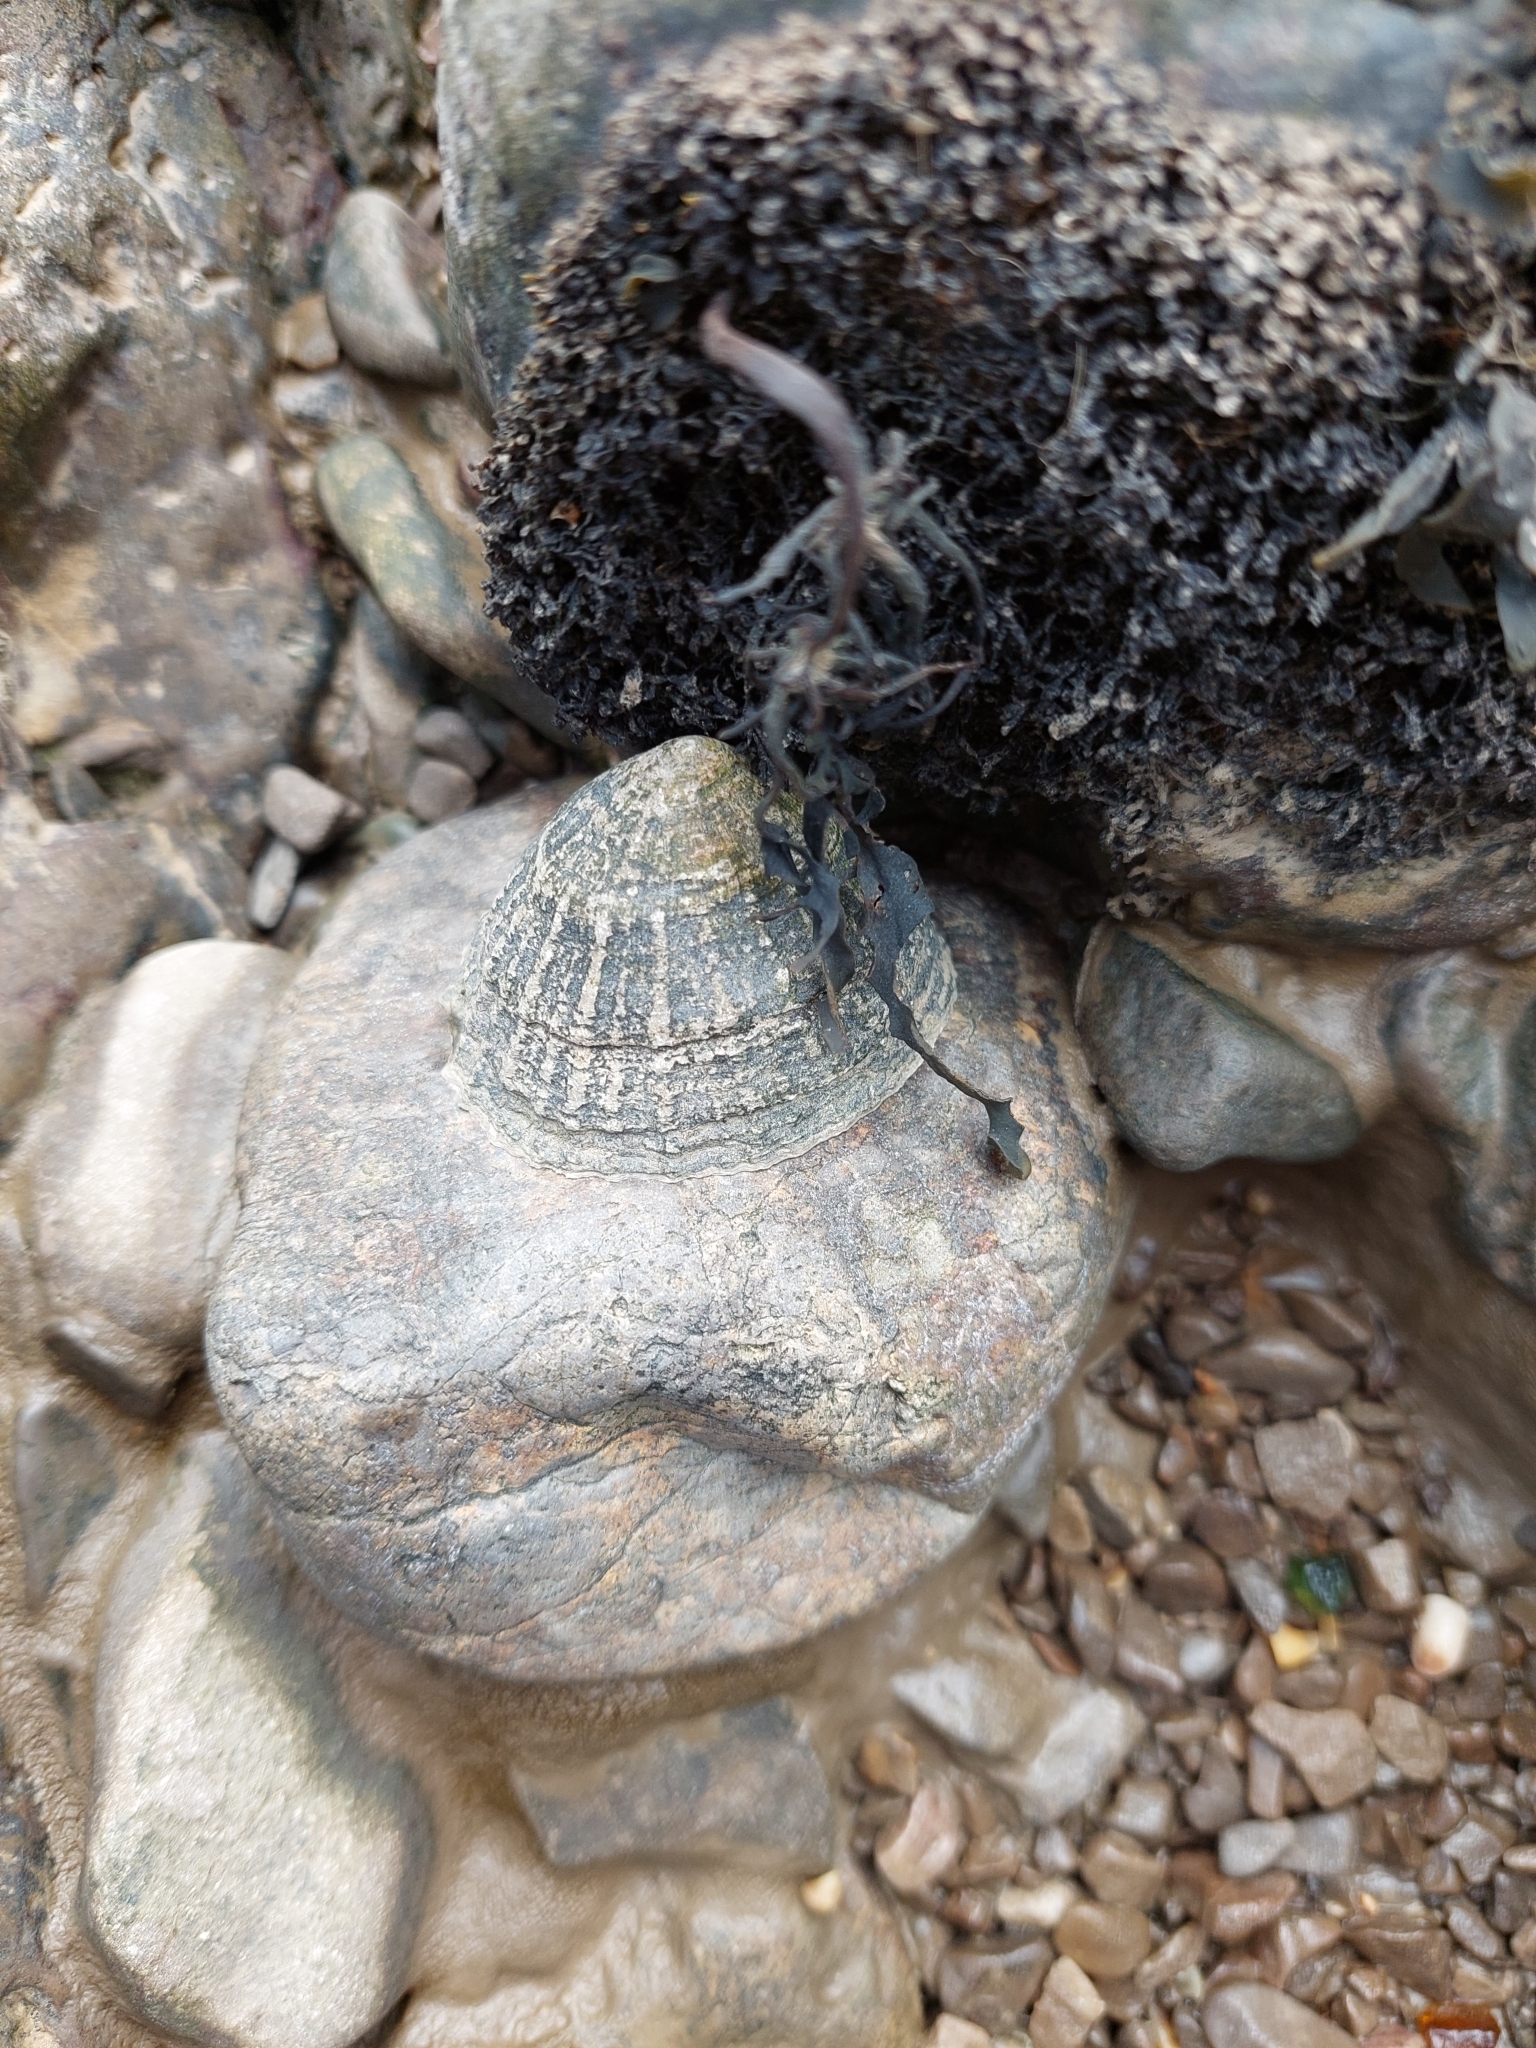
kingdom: Animalia
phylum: Mollusca
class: Gastropoda
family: Patellidae
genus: Patella
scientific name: Patella vulgata
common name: Common limpet
